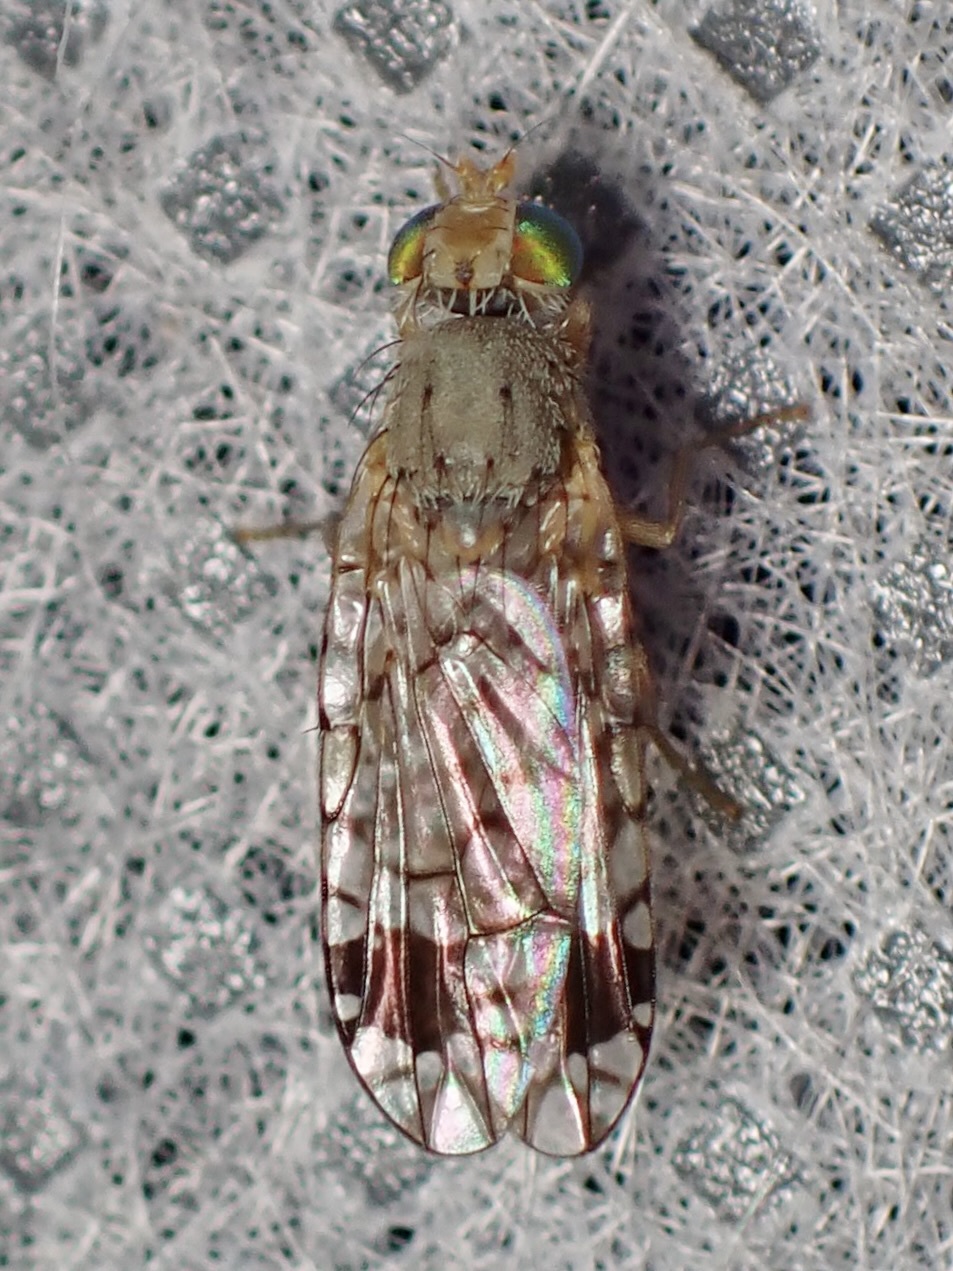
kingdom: Animalia
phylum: Arthropoda
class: Insecta
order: Diptera
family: Tephritidae
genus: Euarestoides
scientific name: Euarestoides acutangulus
